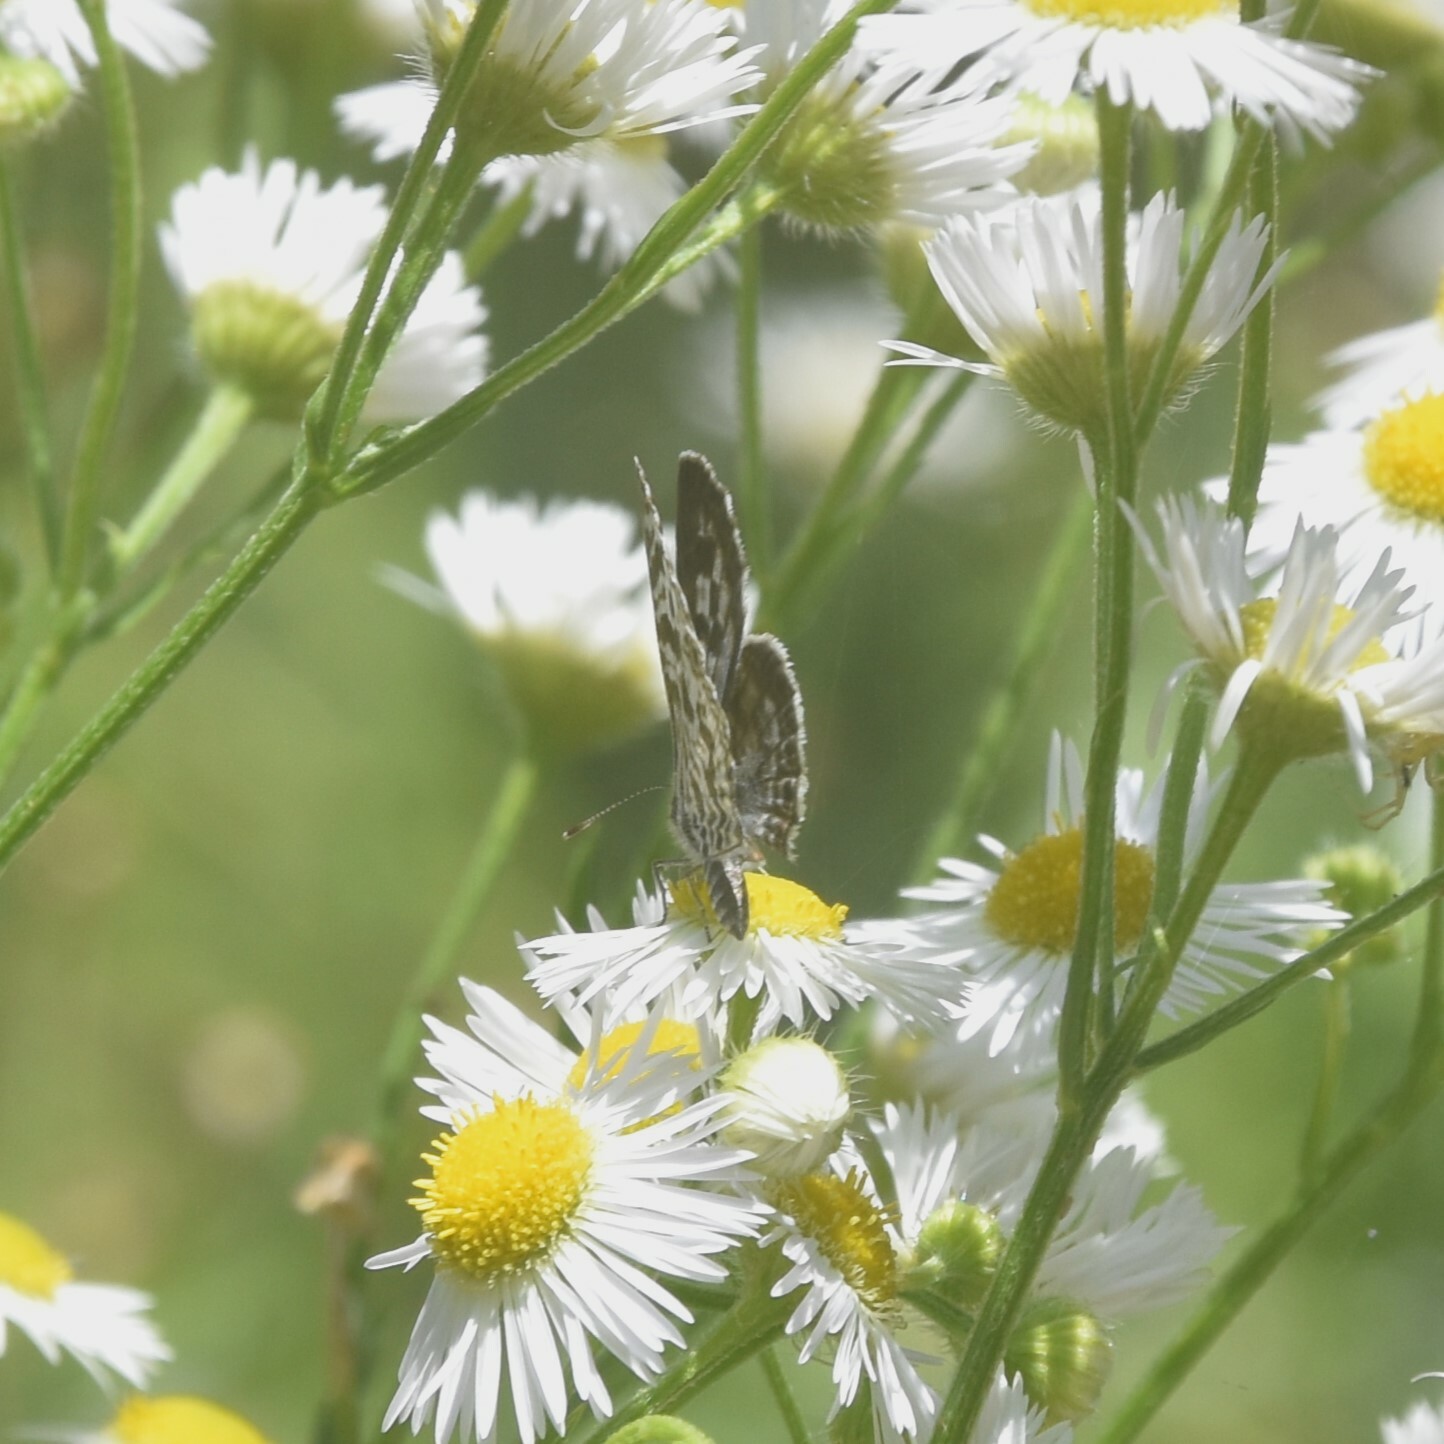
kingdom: Animalia
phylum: Arthropoda
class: Insecta
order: Lepidoptera
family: Lycaenidae
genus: Leptotes
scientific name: Leptotes plinius
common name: Zebra blue
